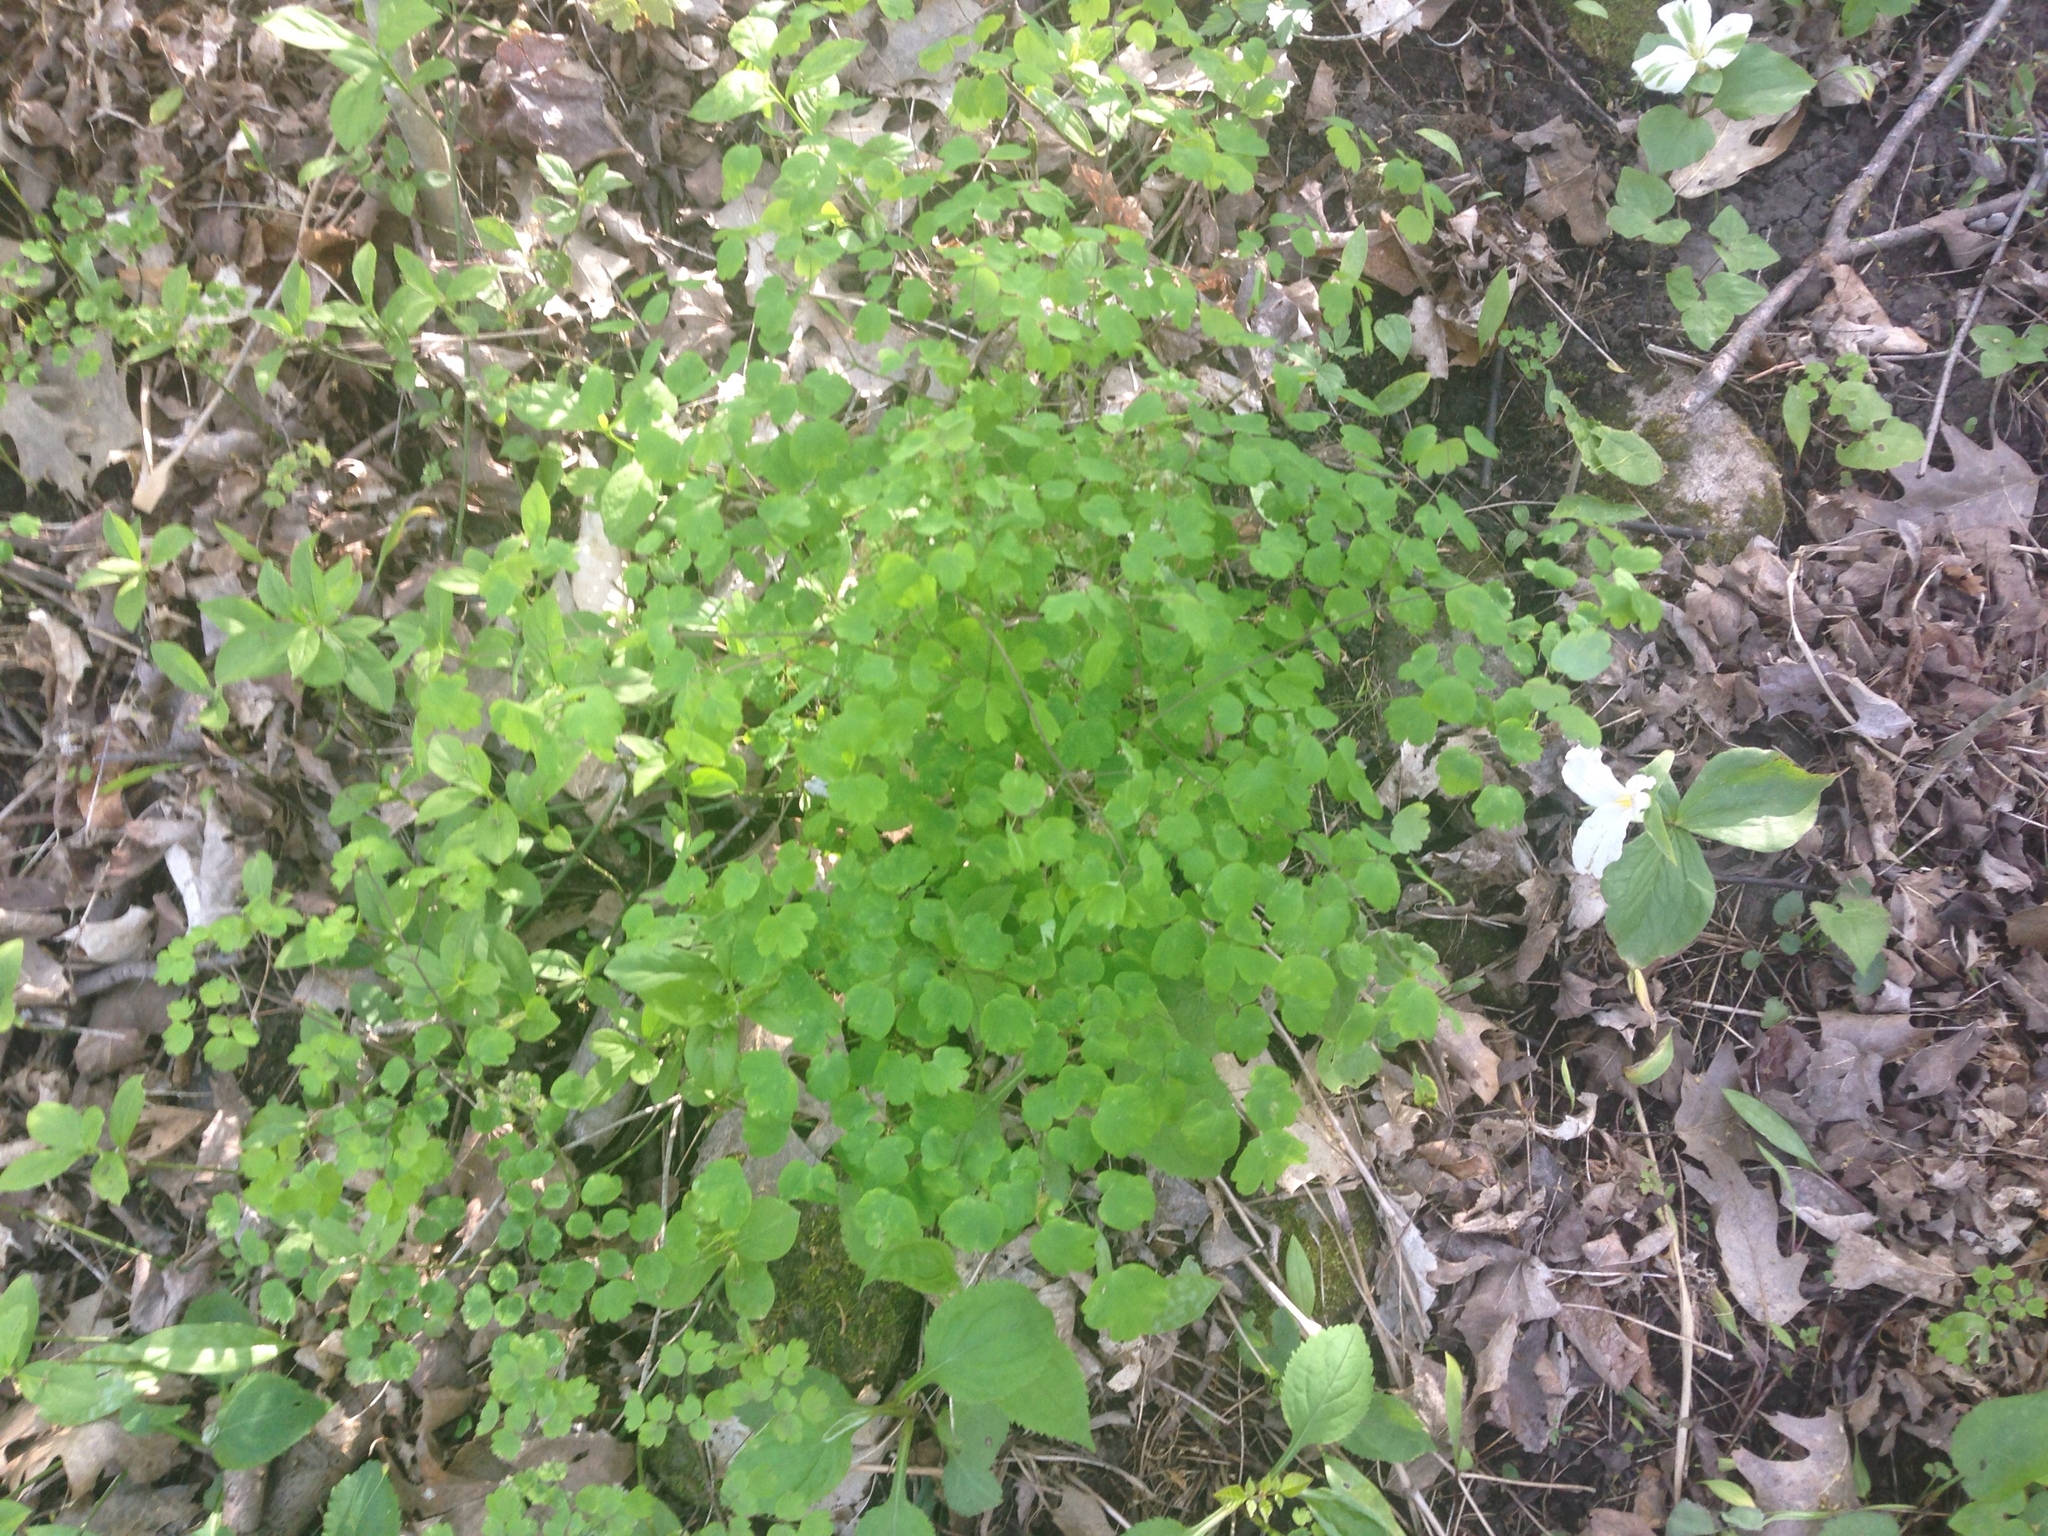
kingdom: Plantae
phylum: Tracheophyta
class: Magnoliopsida
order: Ranunculales
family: Ranunculaceae
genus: Thalictrum
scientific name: Thalictrum dioicum
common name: Early meadow-rue
